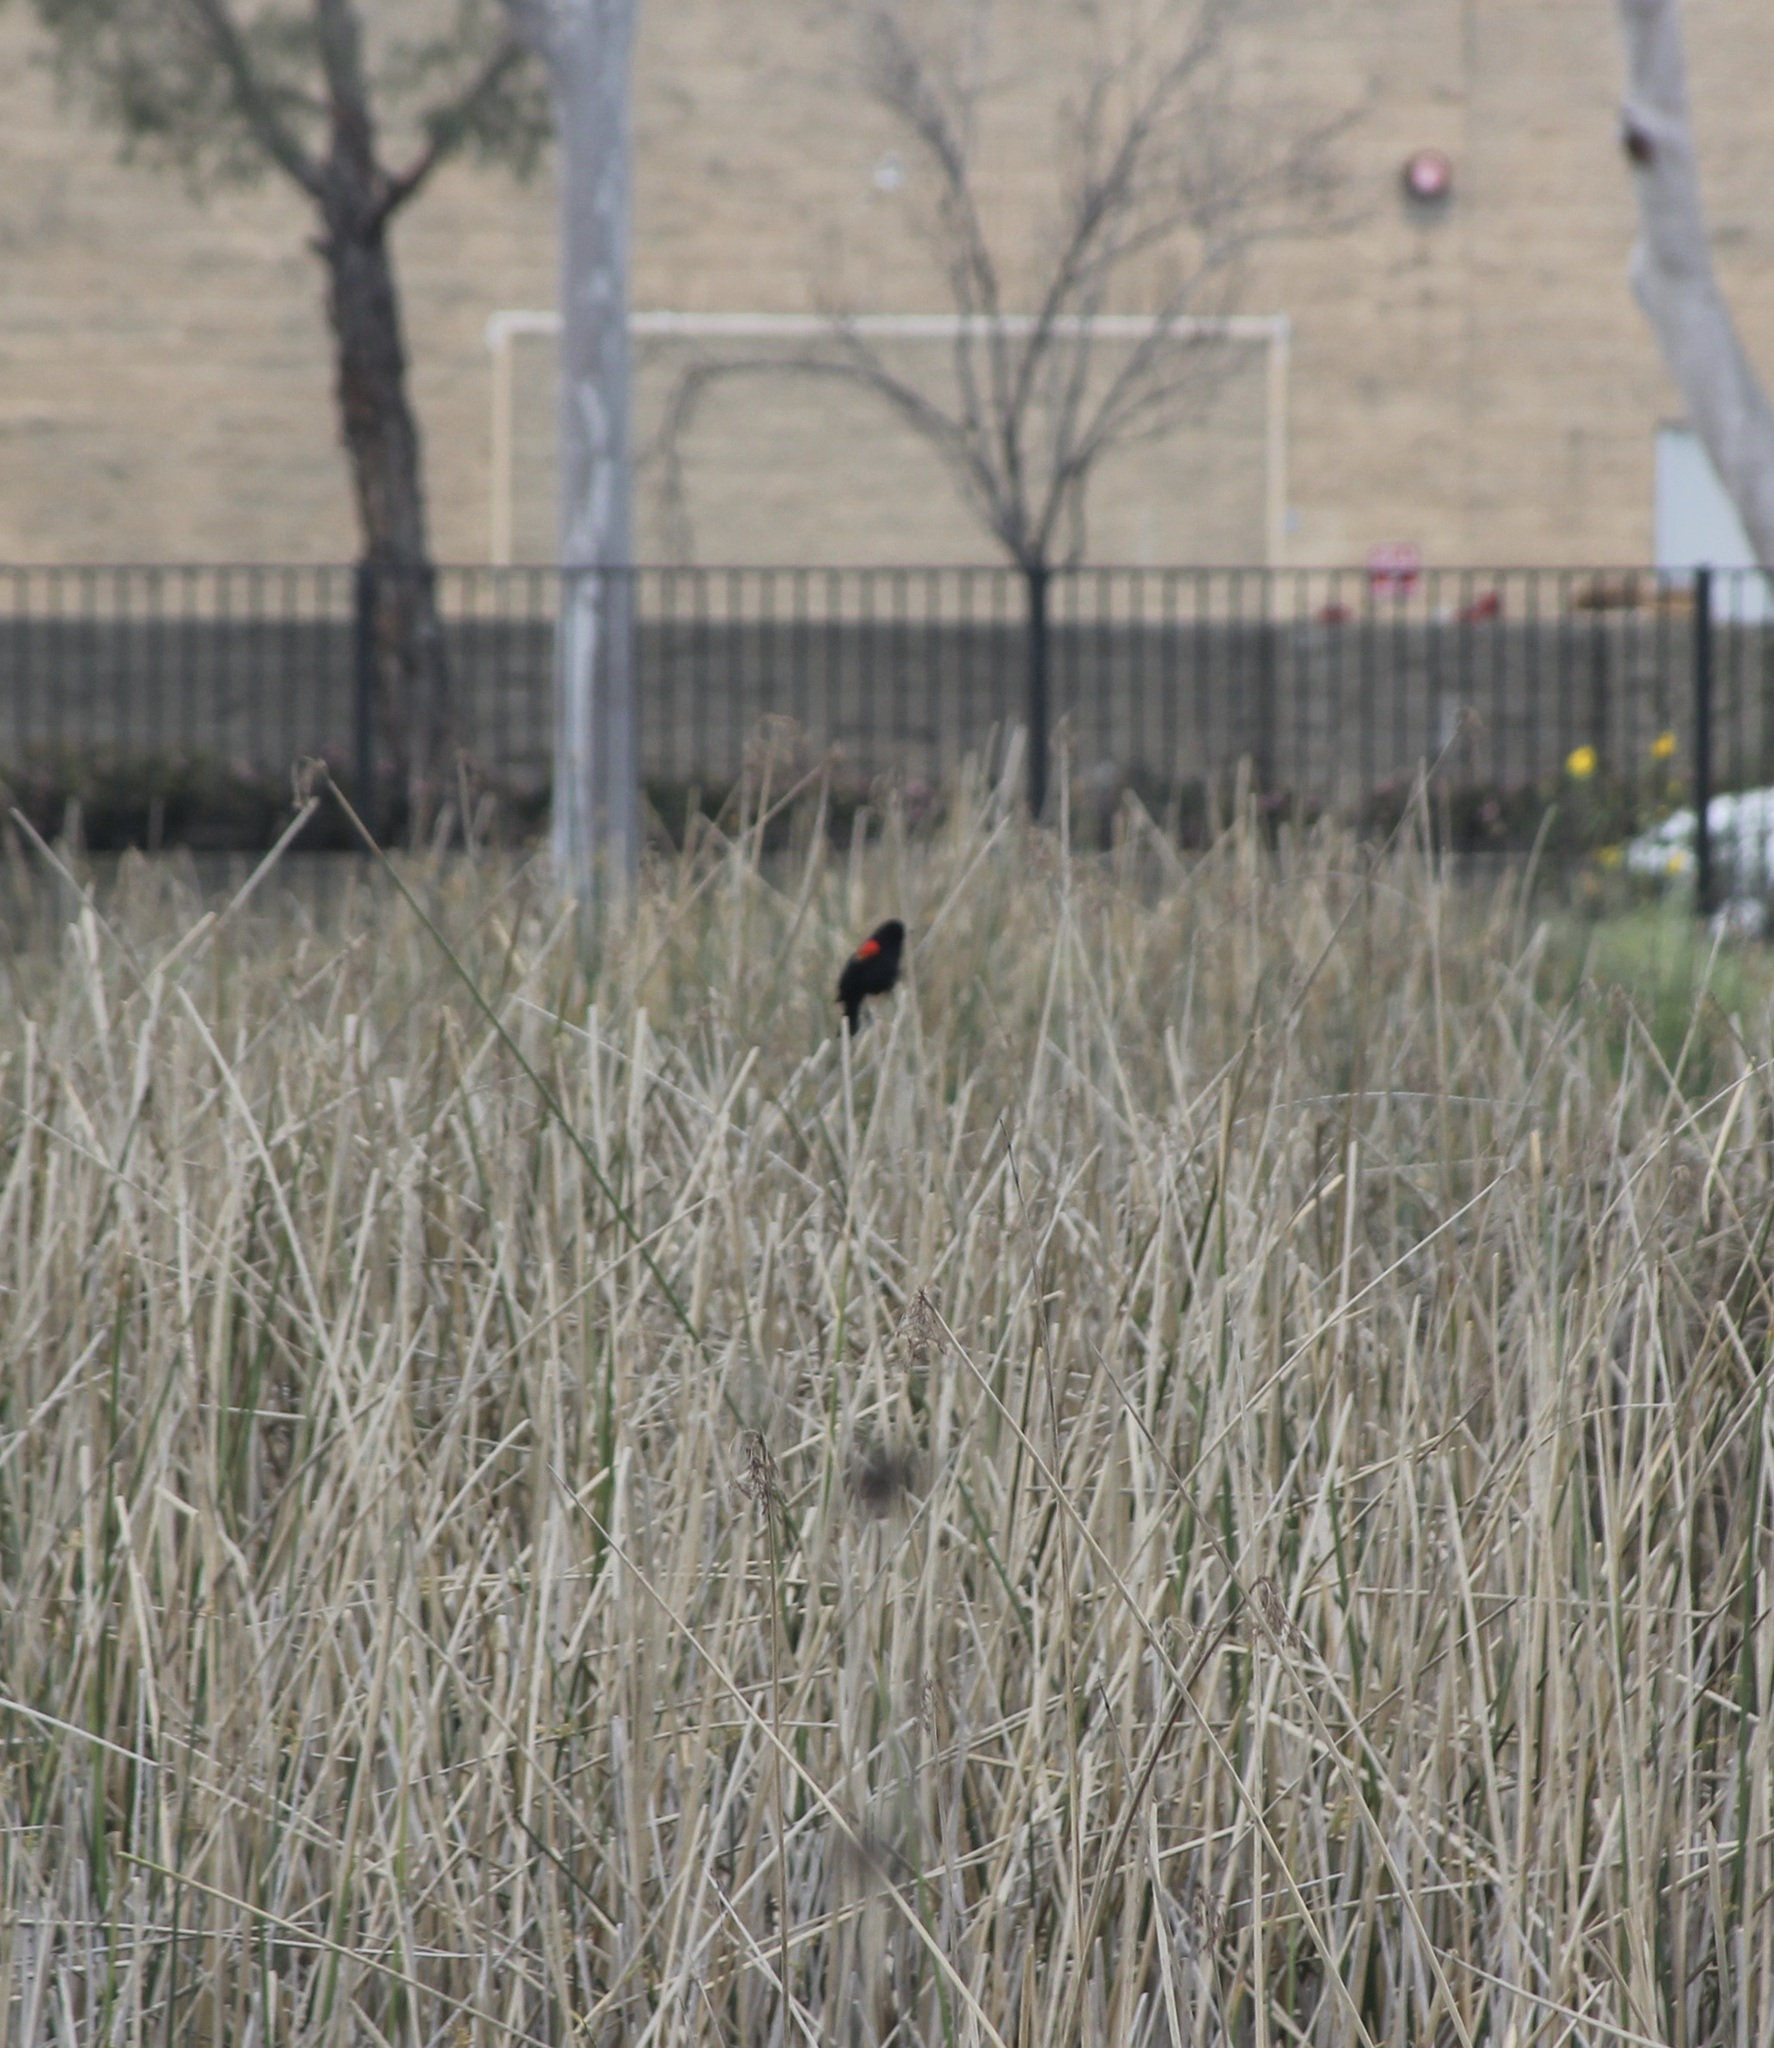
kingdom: Animalia
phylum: Chordata
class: Aves
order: Passeriformes
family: Icteridae
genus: Agelaius
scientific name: Agelaius phoeniceus
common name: Red-winged blackbird
